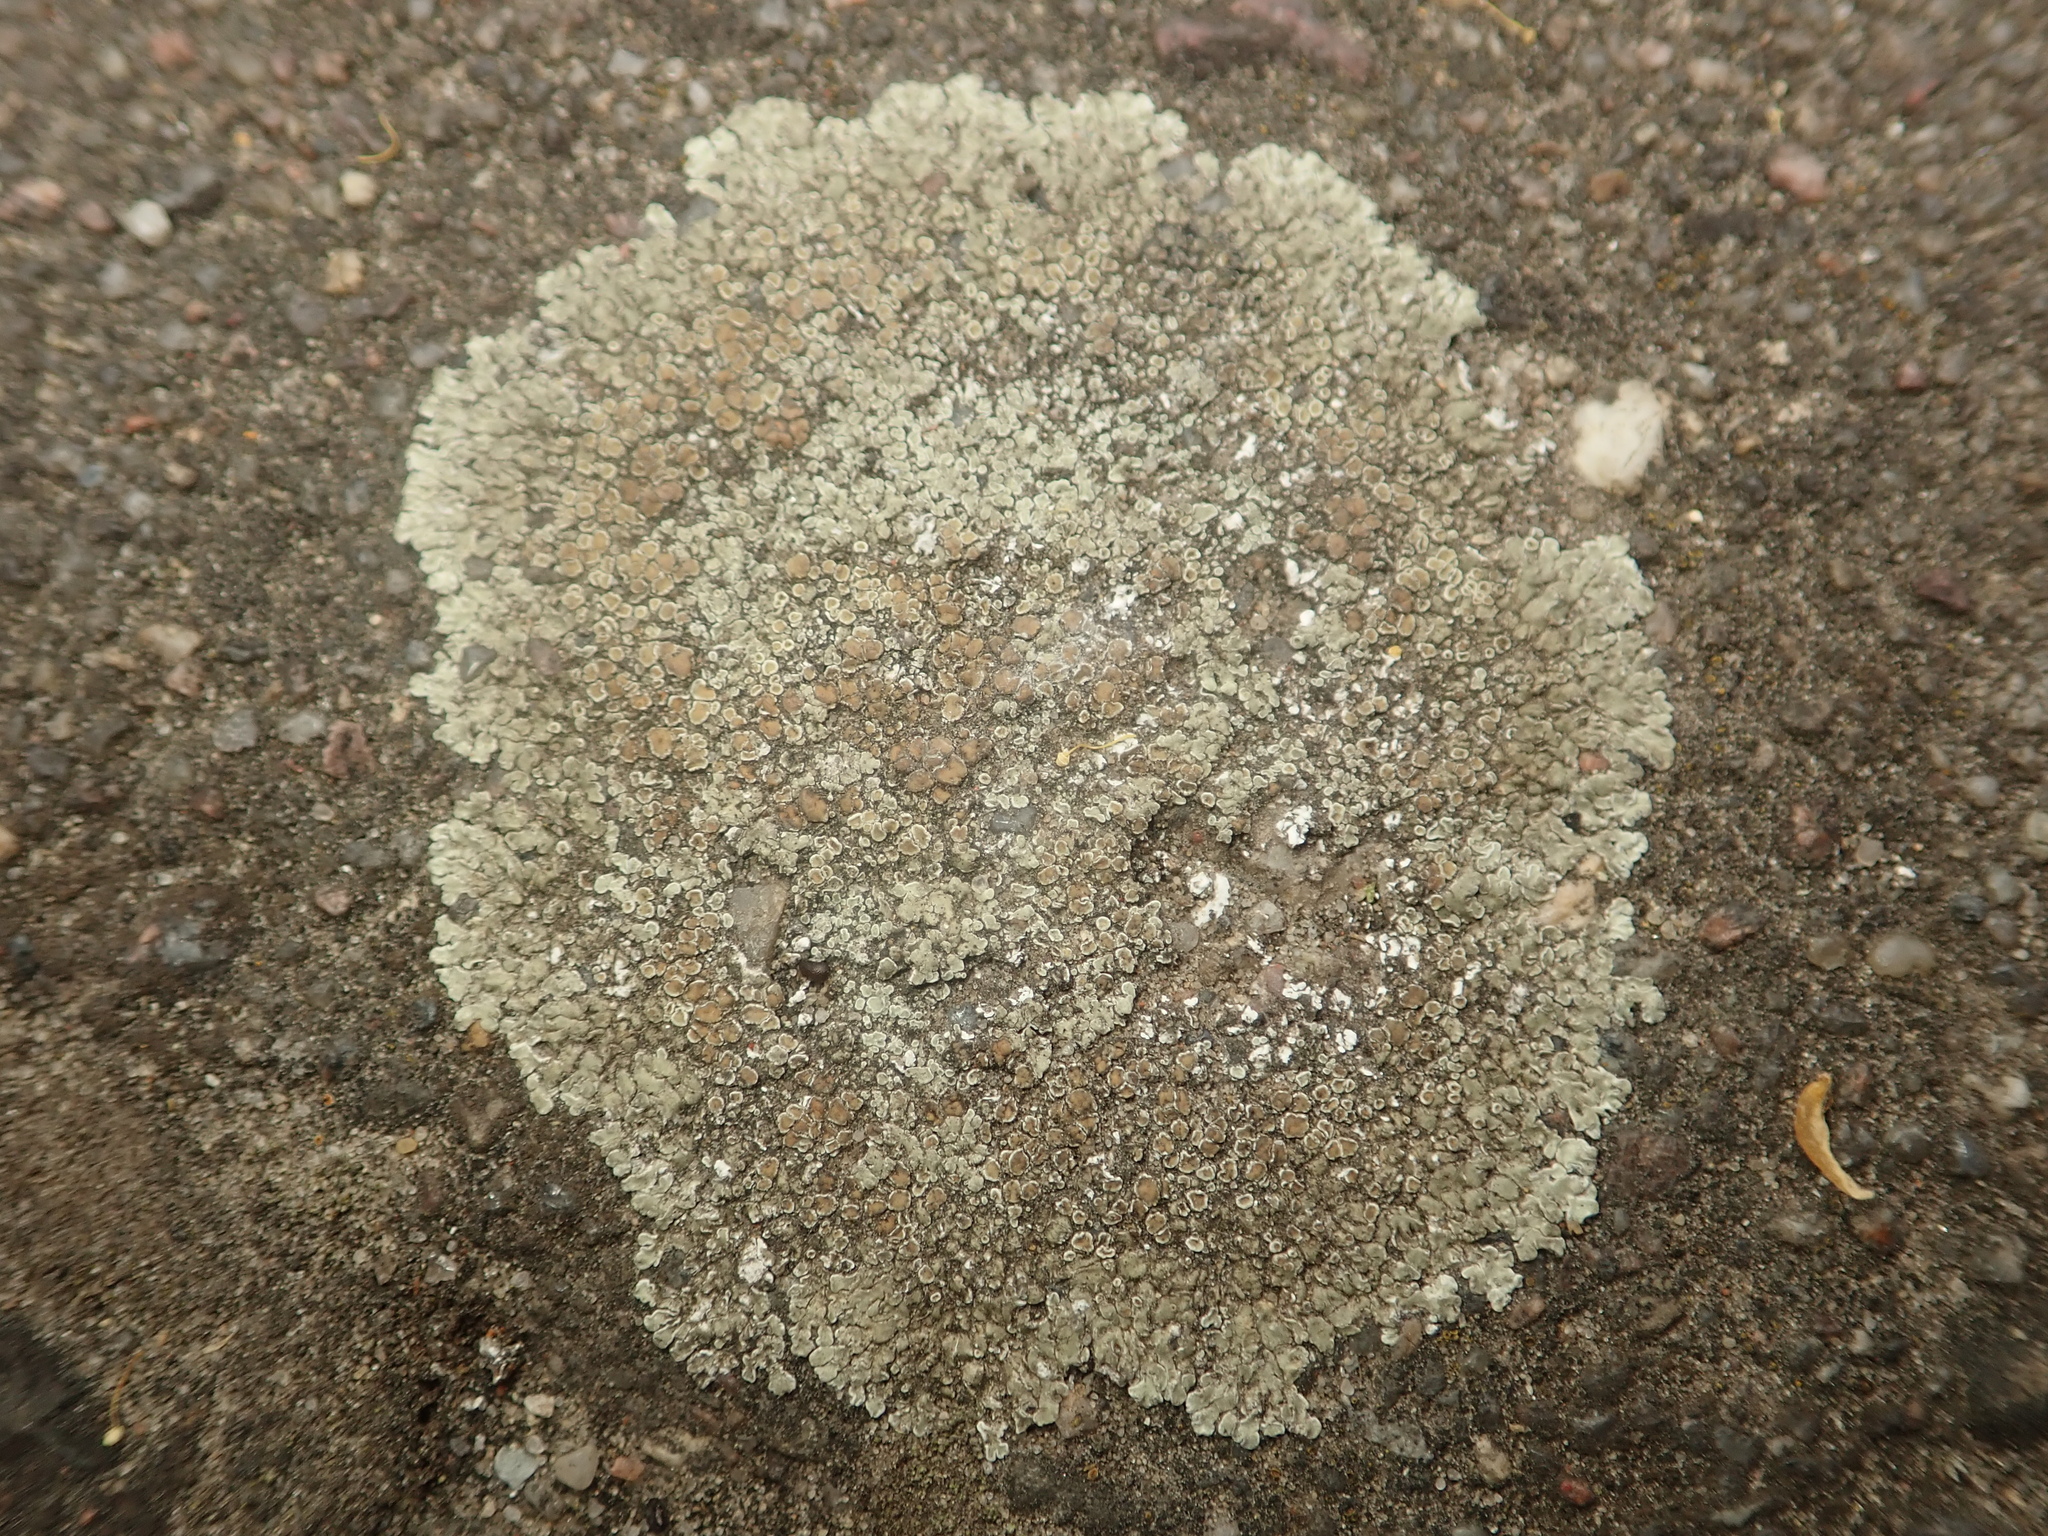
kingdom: Fungi
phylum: Ascomycota
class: Lecanoromycetes
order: Lecanorales
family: Lecanoraceae
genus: Protoparmeliopsis
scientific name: Protoparmeliopsis muralis
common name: Stonewall rim lichen
